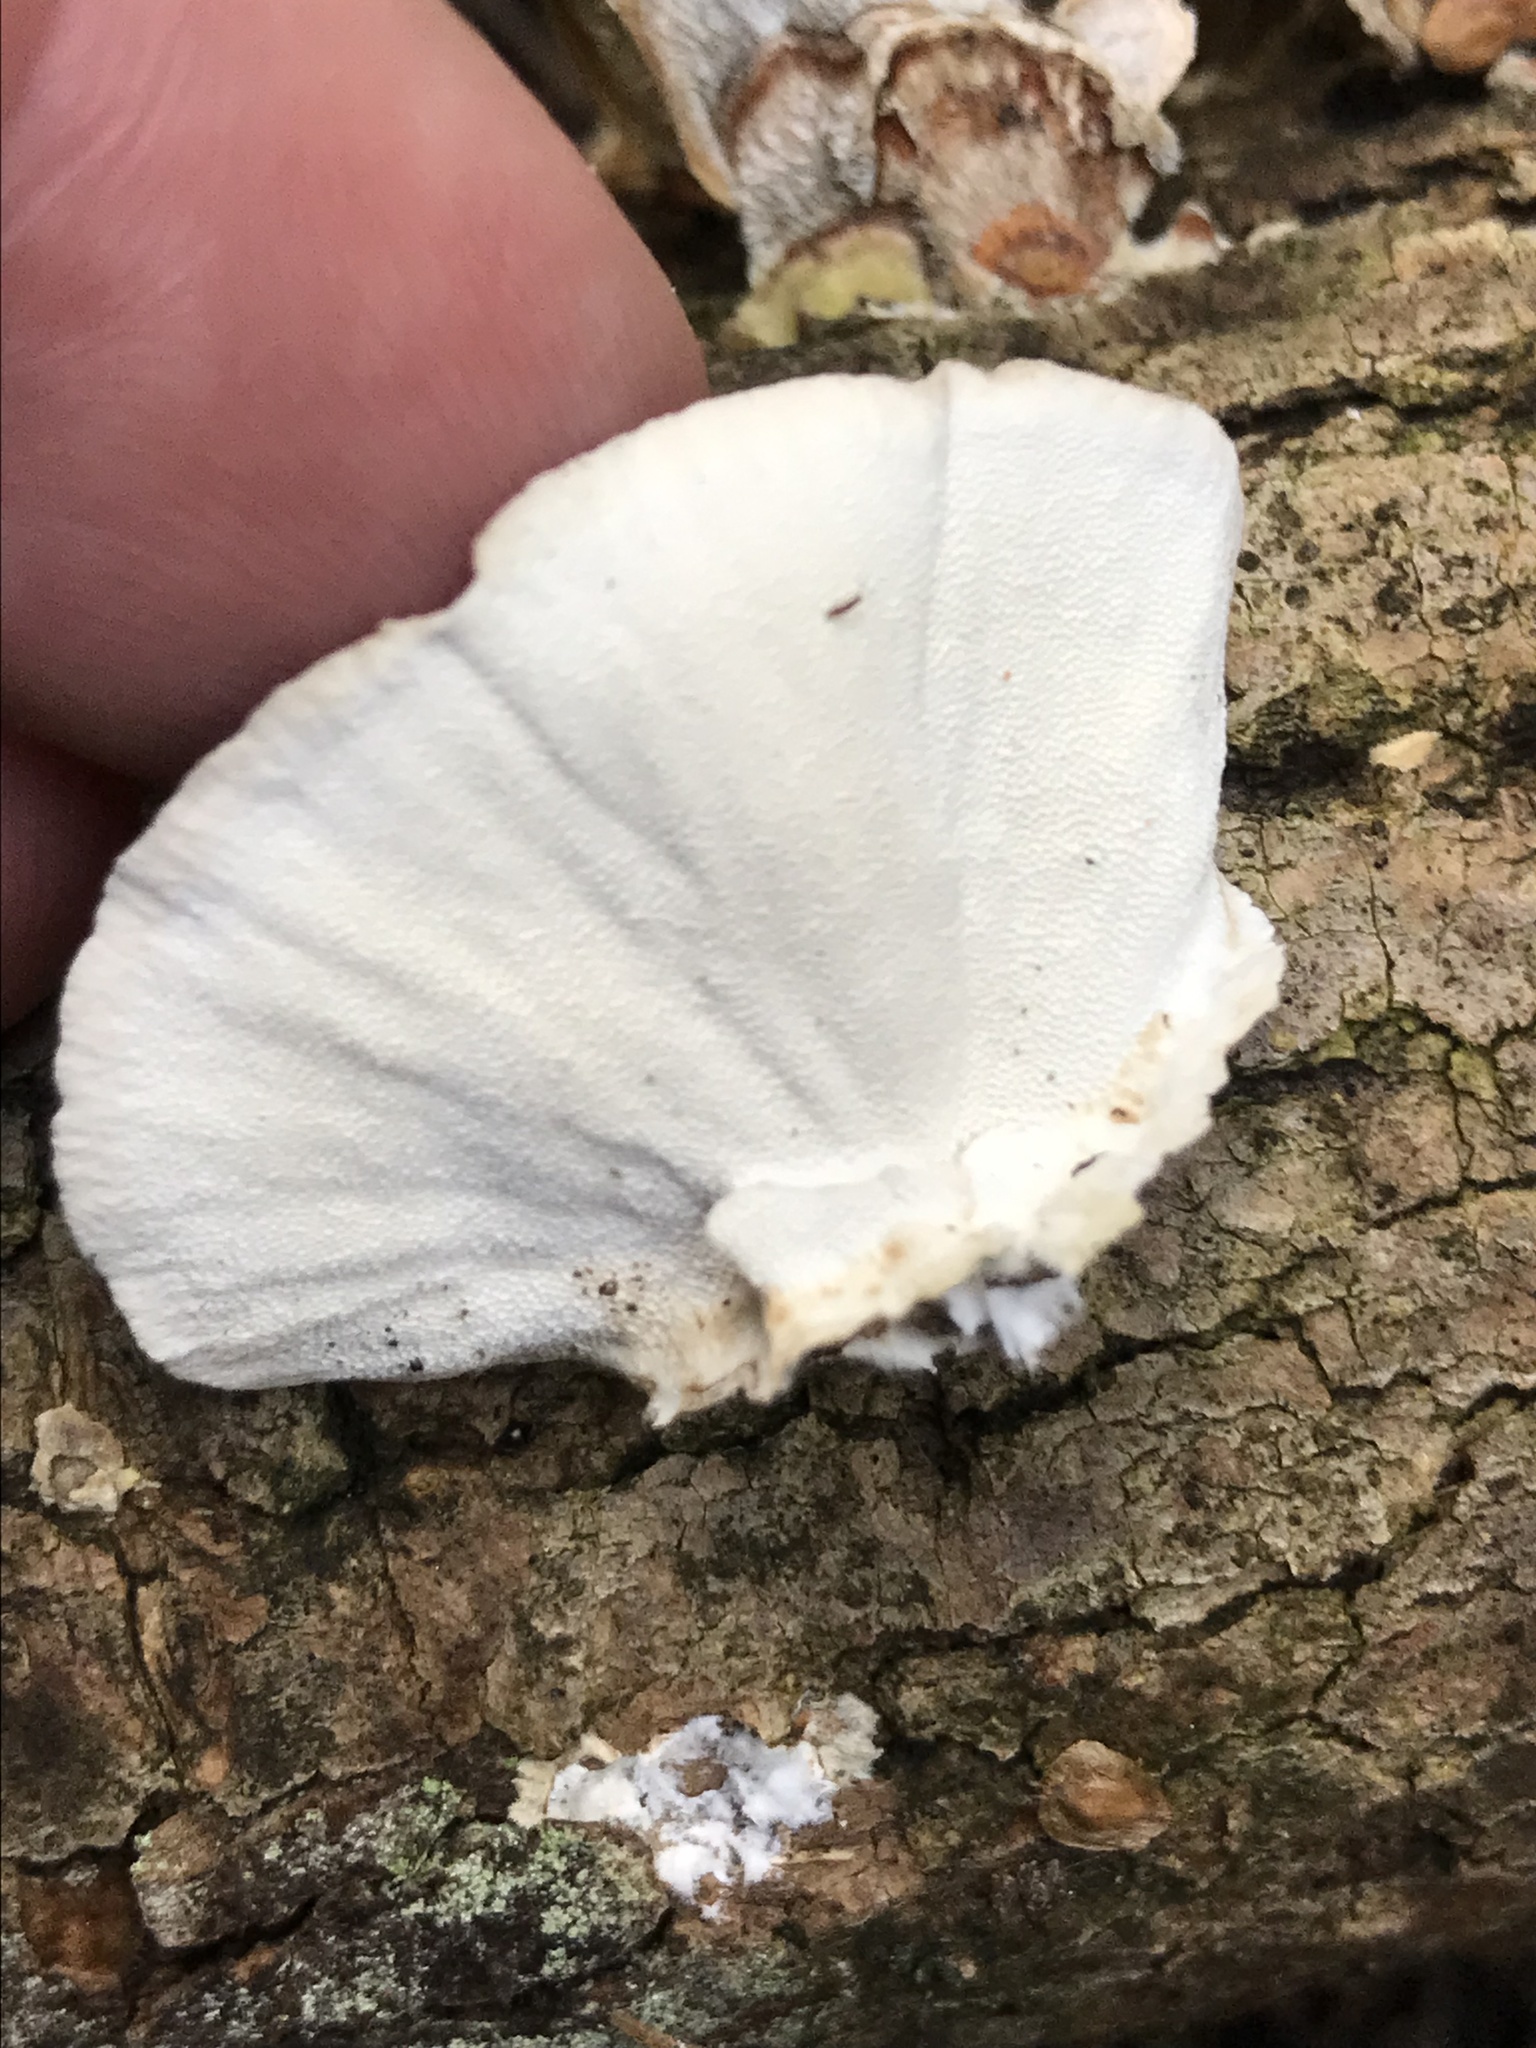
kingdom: Fungi
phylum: Basidiomycota
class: Agaricomycetes
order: Polyporales
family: Polyporaceae
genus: Trametes
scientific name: Trametes versicolor
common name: Turkeytail
